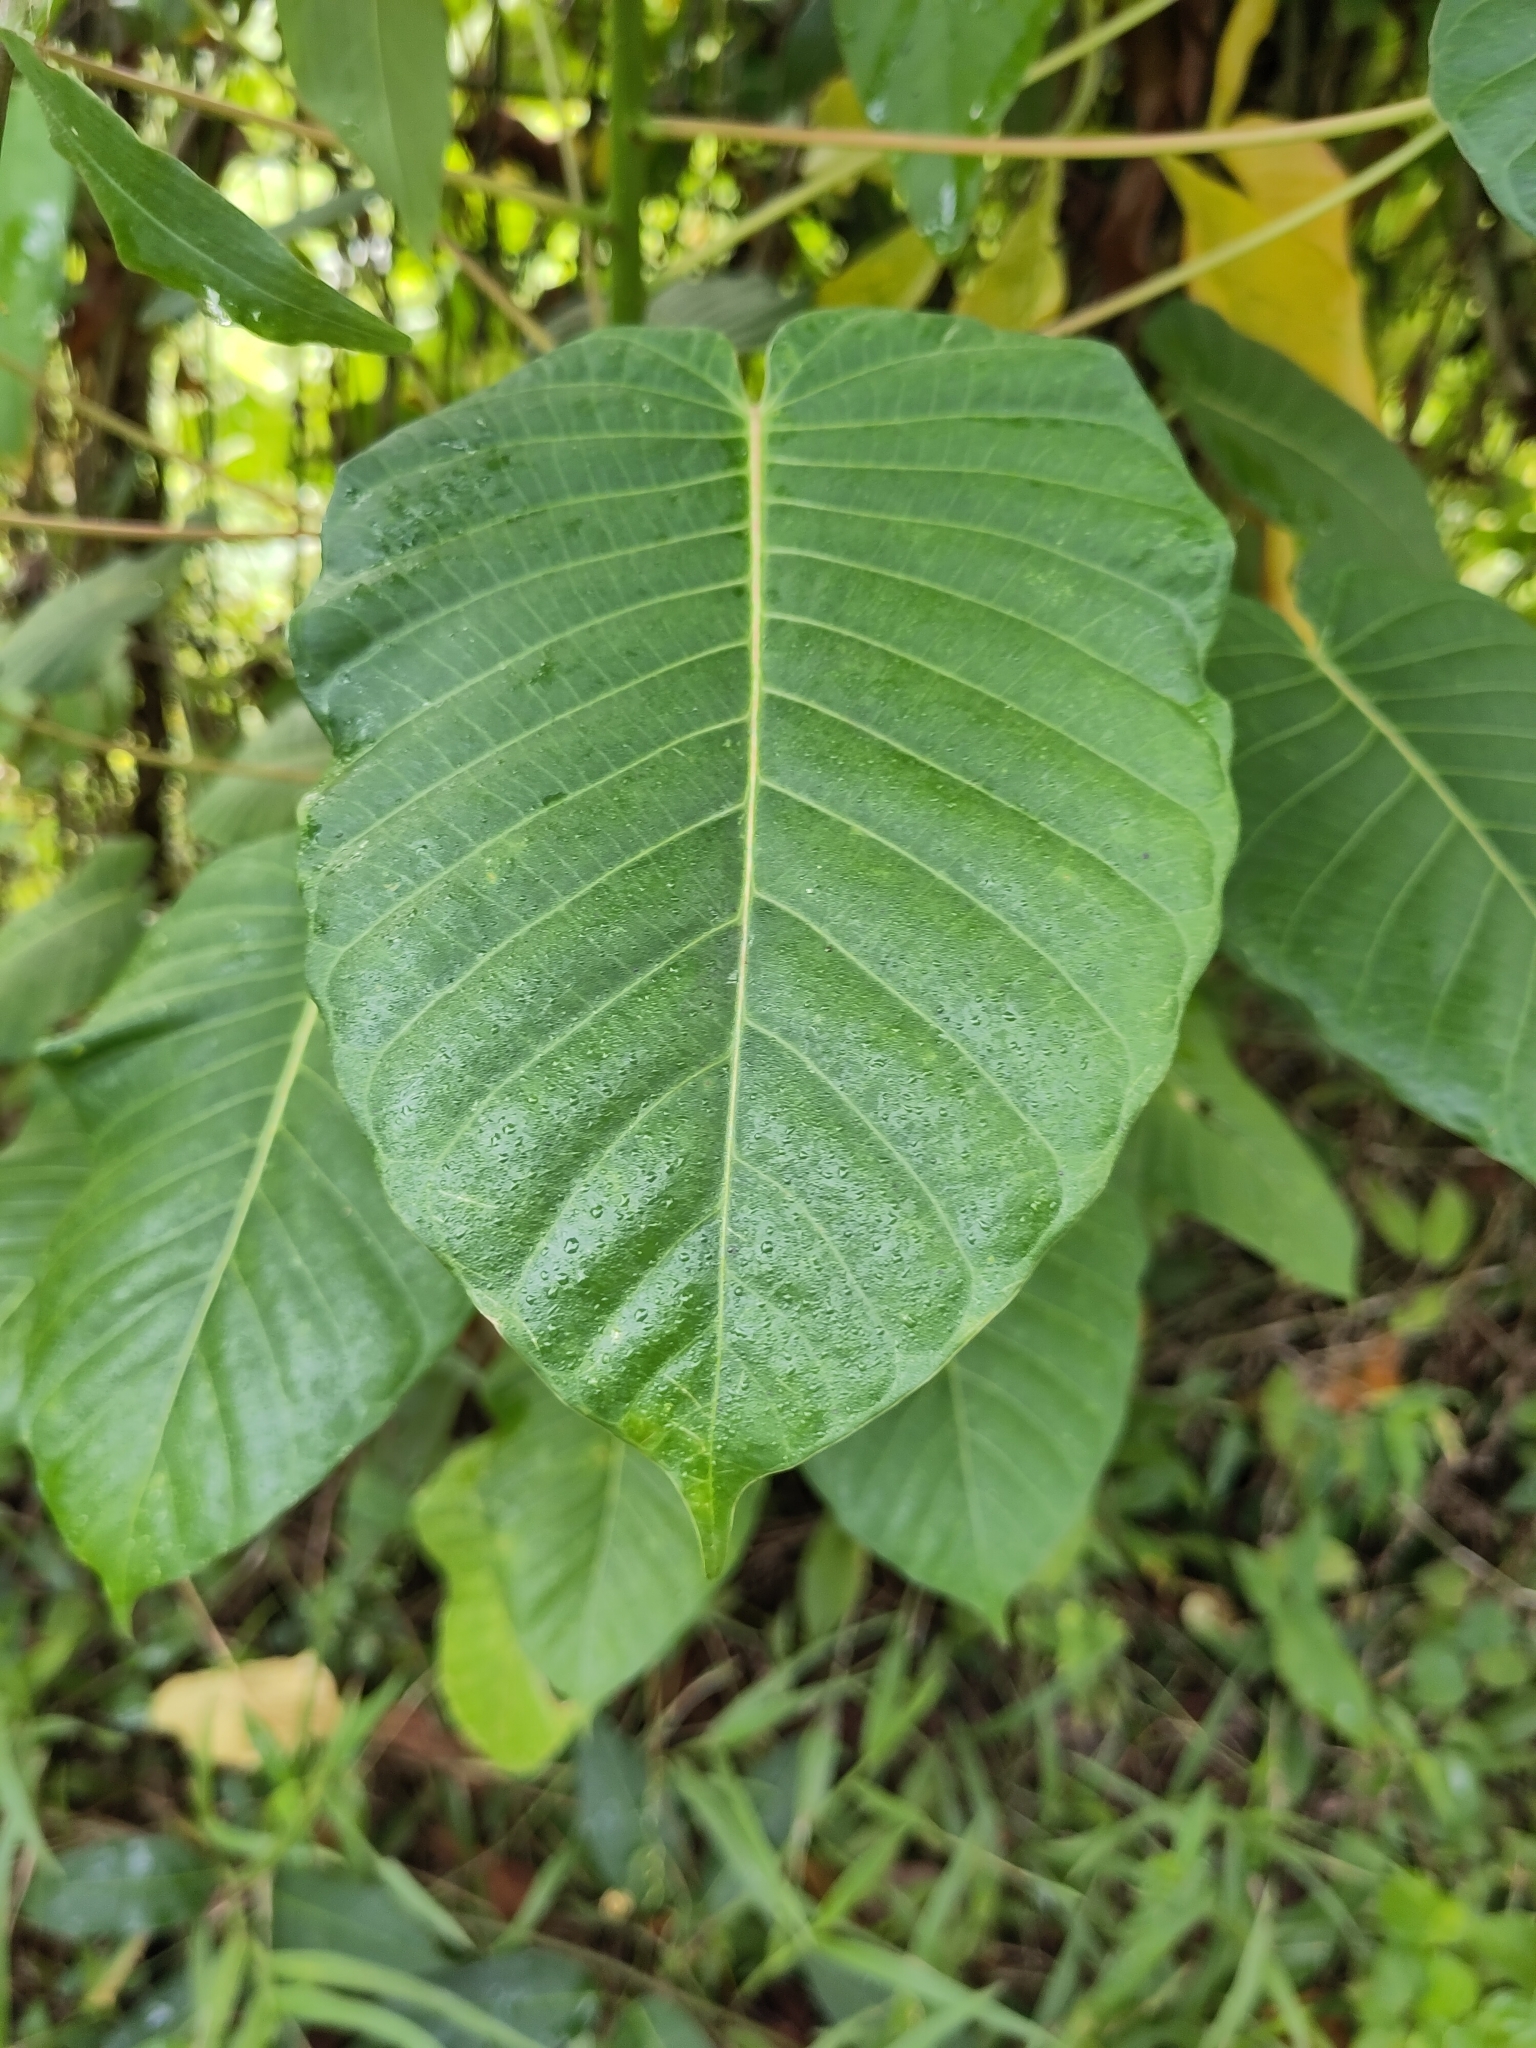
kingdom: Plantae
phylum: Tracheophyta
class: Magnoliopsida
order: Malpighiales
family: Euphorbiaceae
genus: Hura
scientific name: Hura crepitans
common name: Sandboxtree
